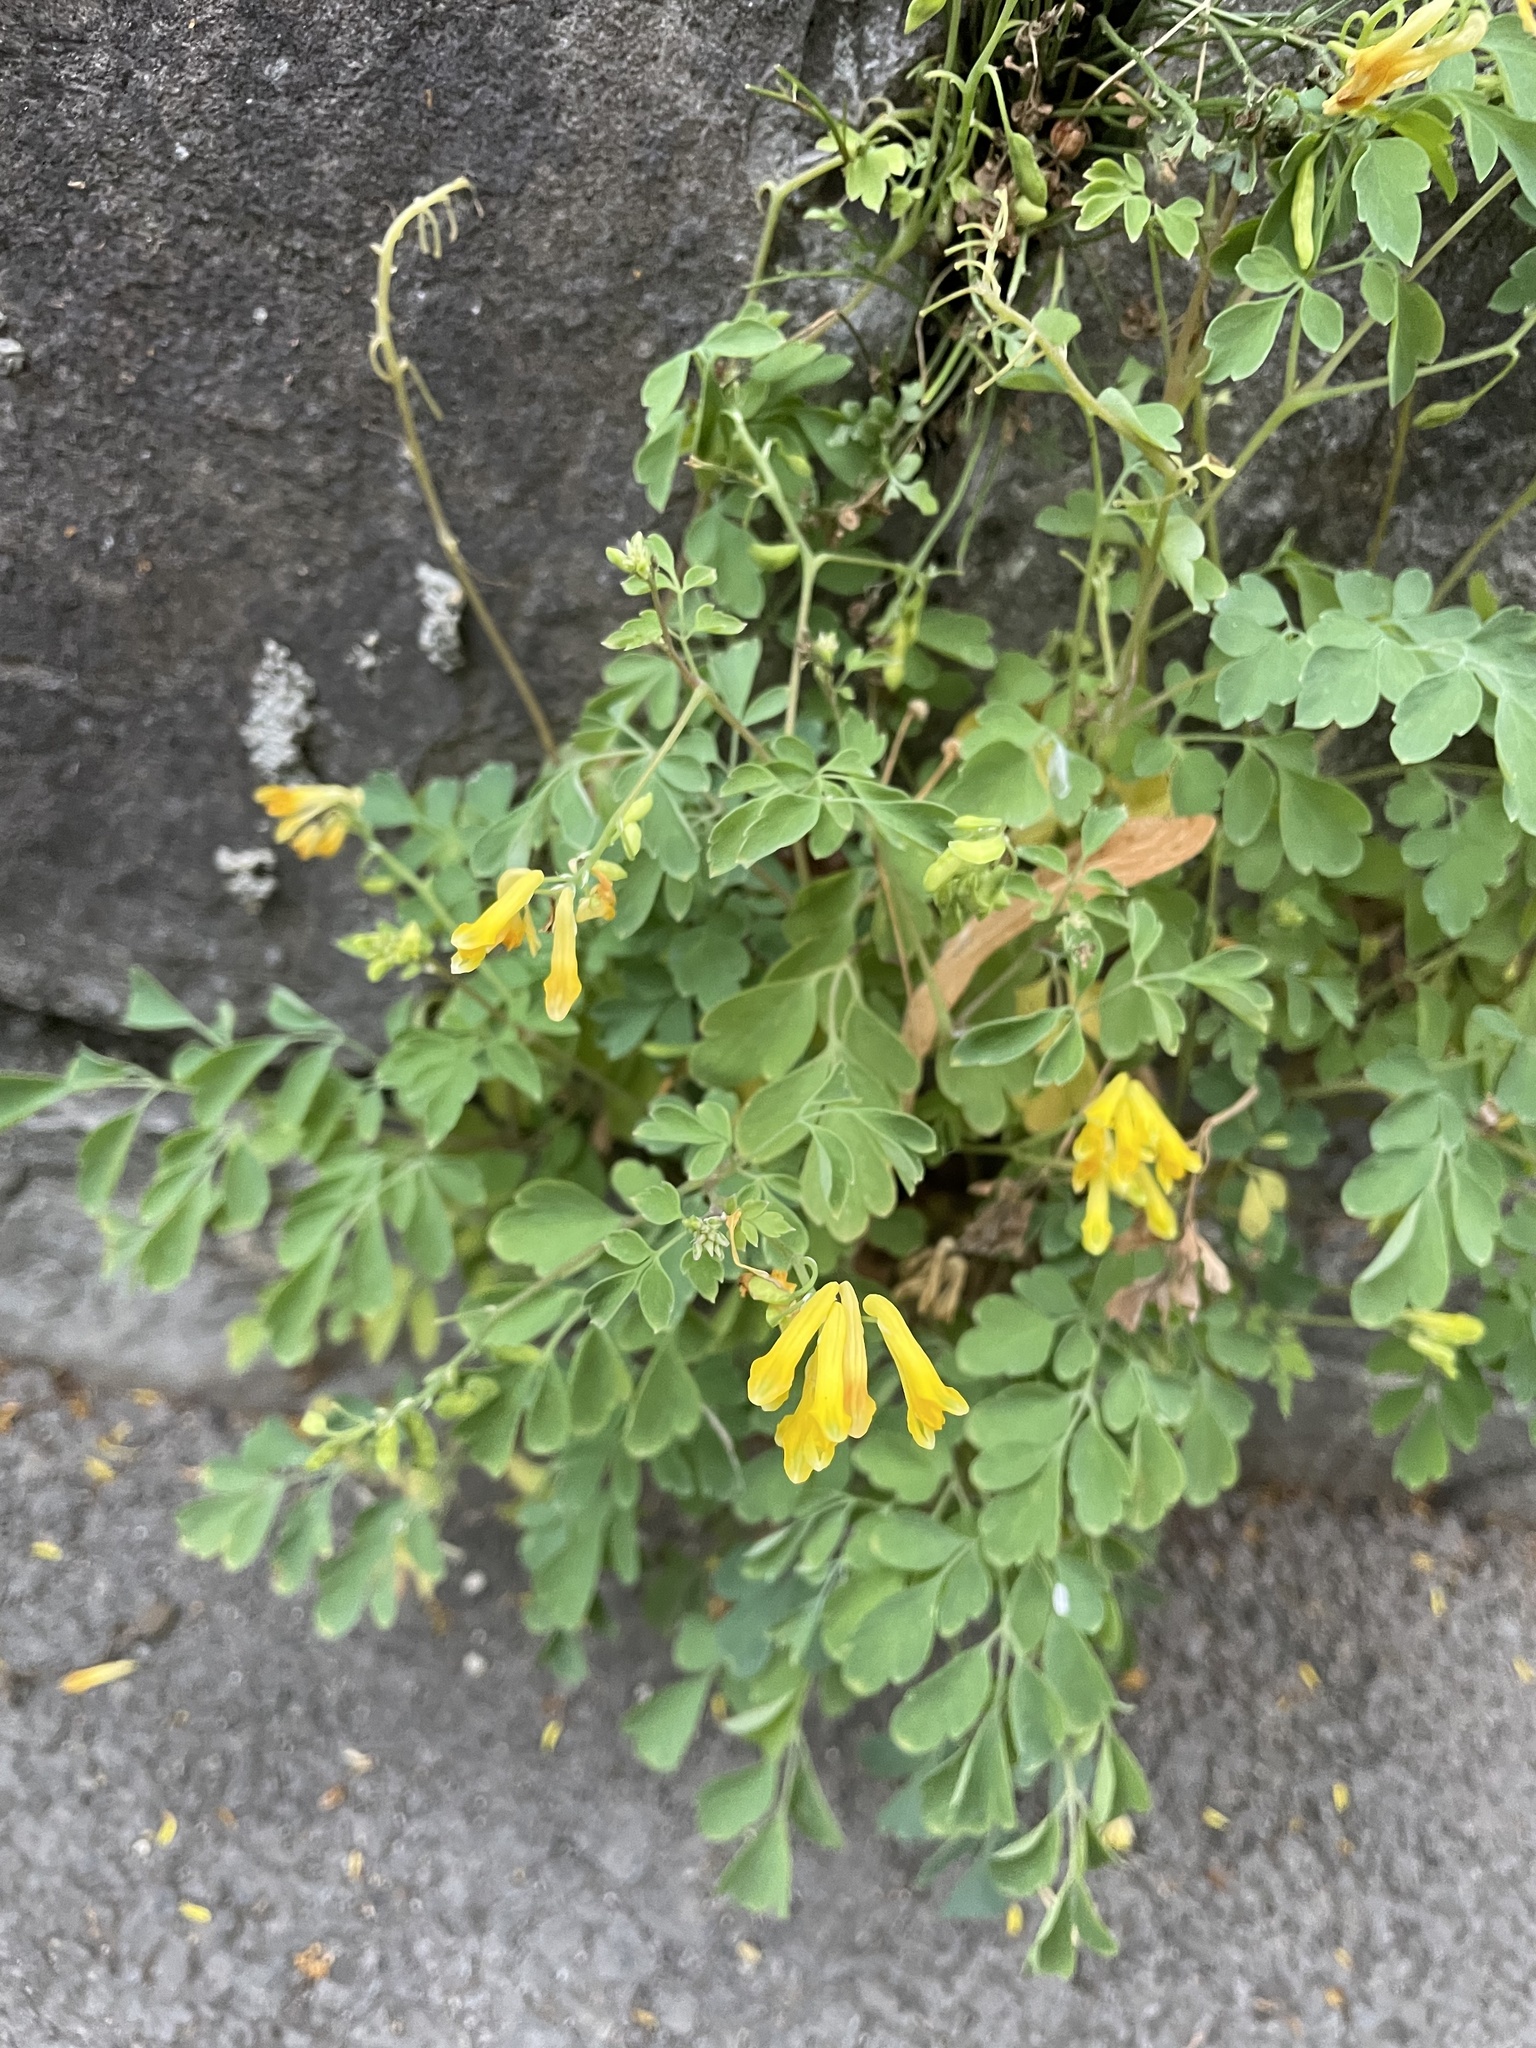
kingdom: Plantae
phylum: Tracheophyta
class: Magnoliopsida
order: Ranunculales
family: Papaveraceae
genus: Pseudofumaria
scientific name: Pseudofumaria lutea
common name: Yellow corydalis
